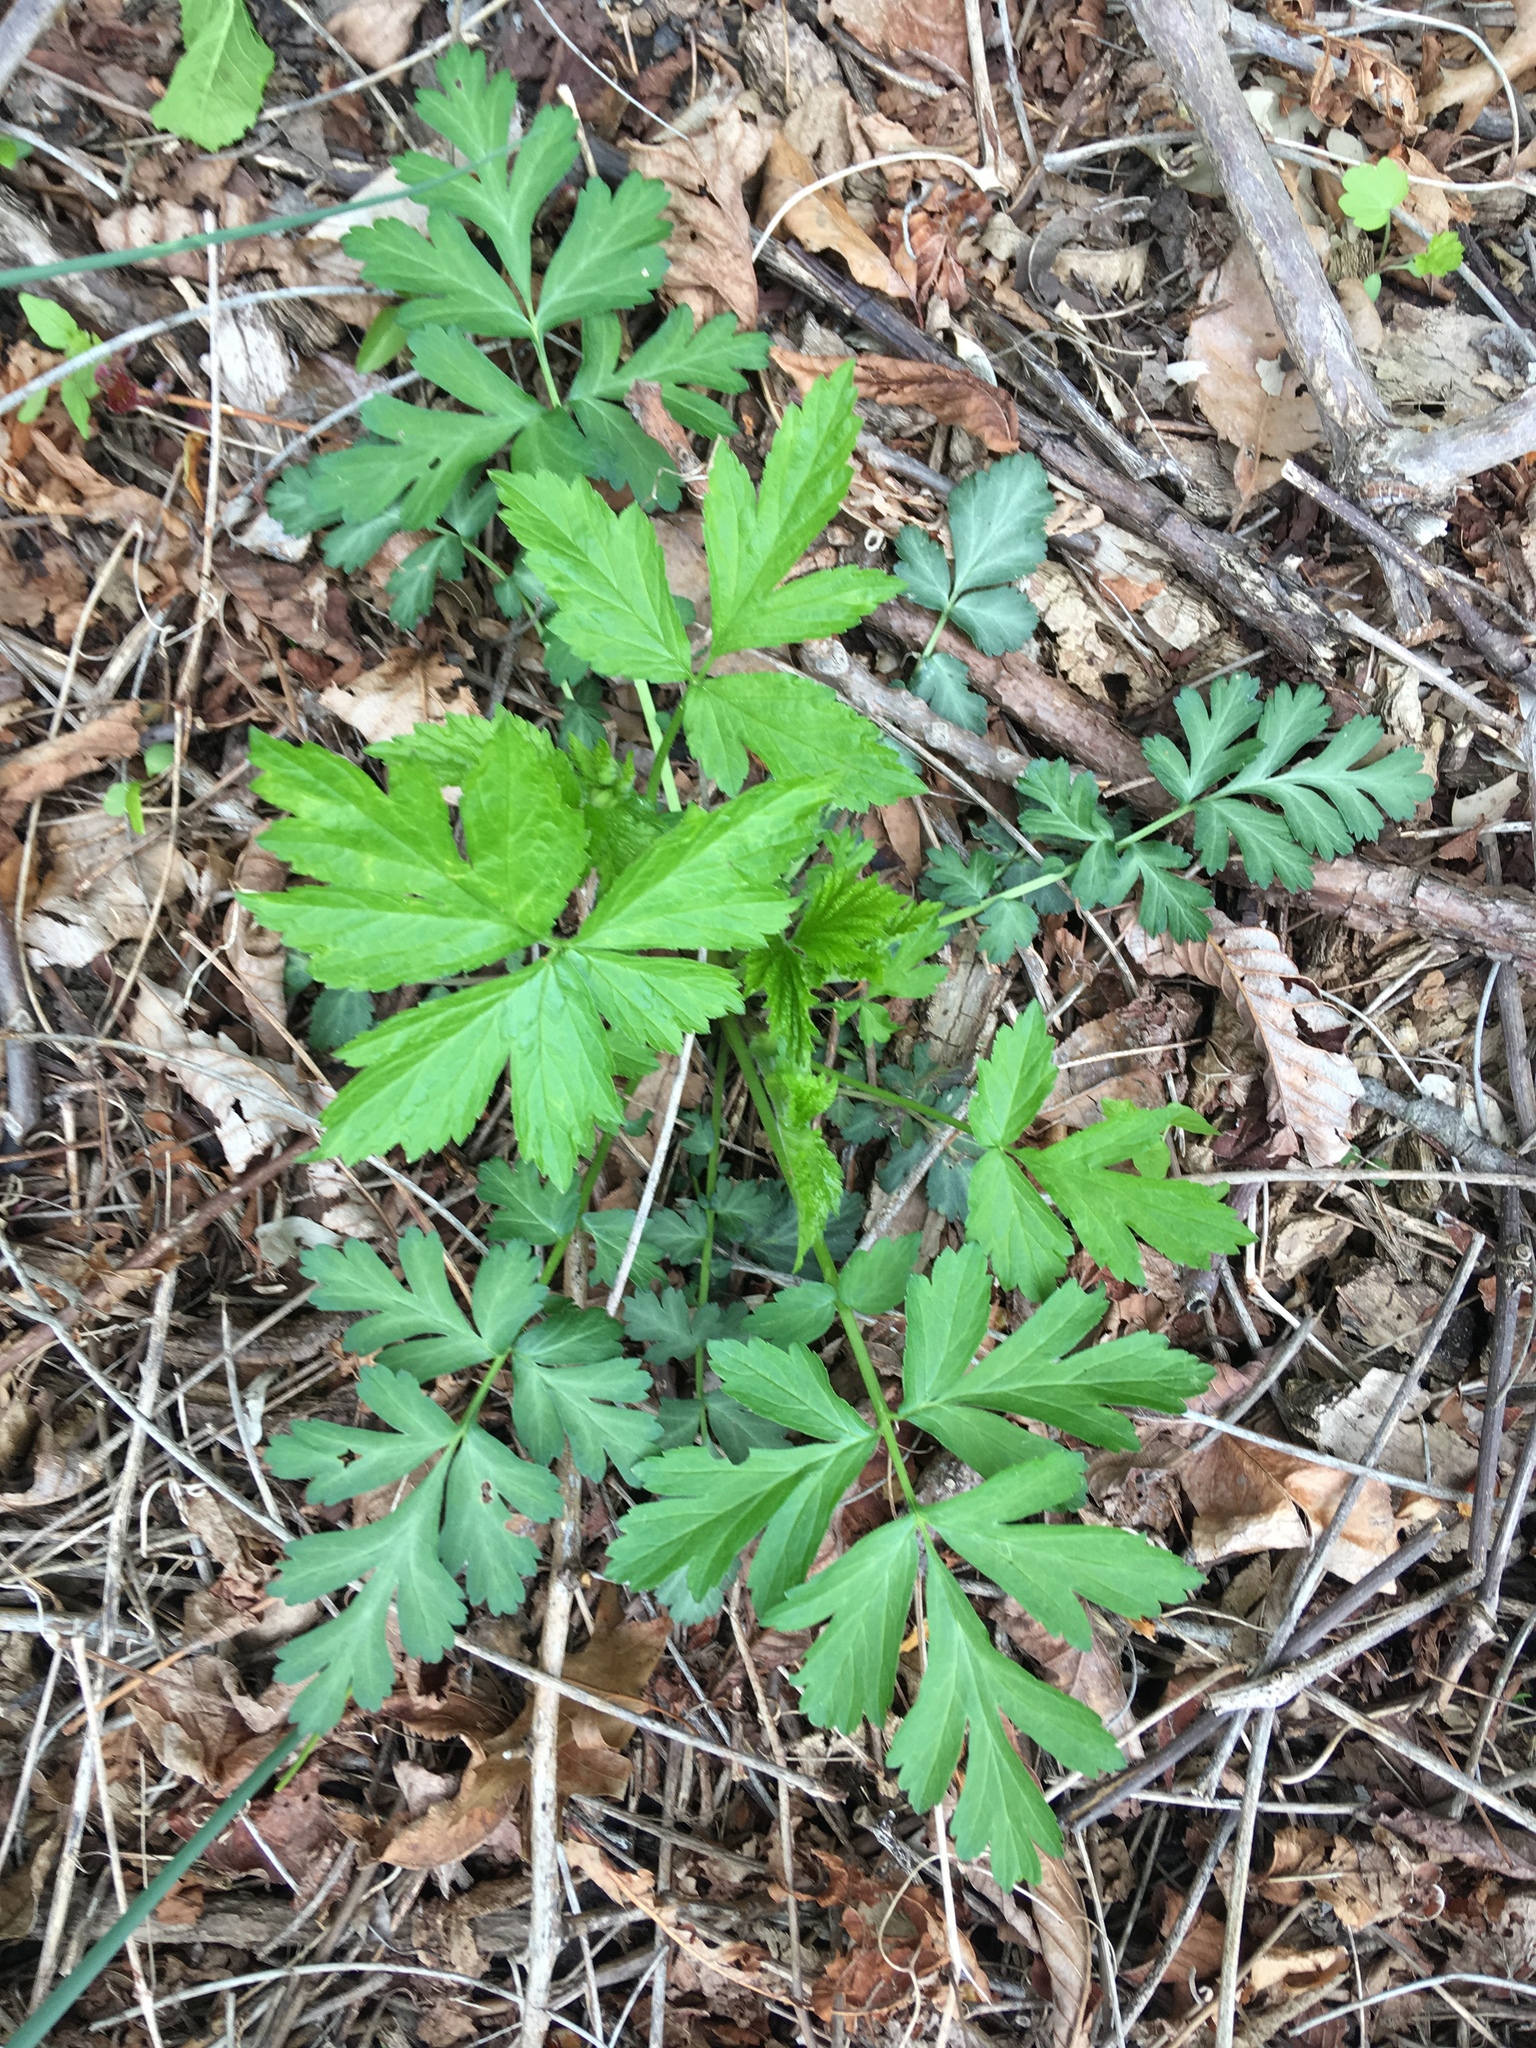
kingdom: Plantae
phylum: Tracheophyta
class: Magnoliopsida
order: Rosales
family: Rosaceae
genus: Geum
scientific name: Geum canadense
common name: White avens
